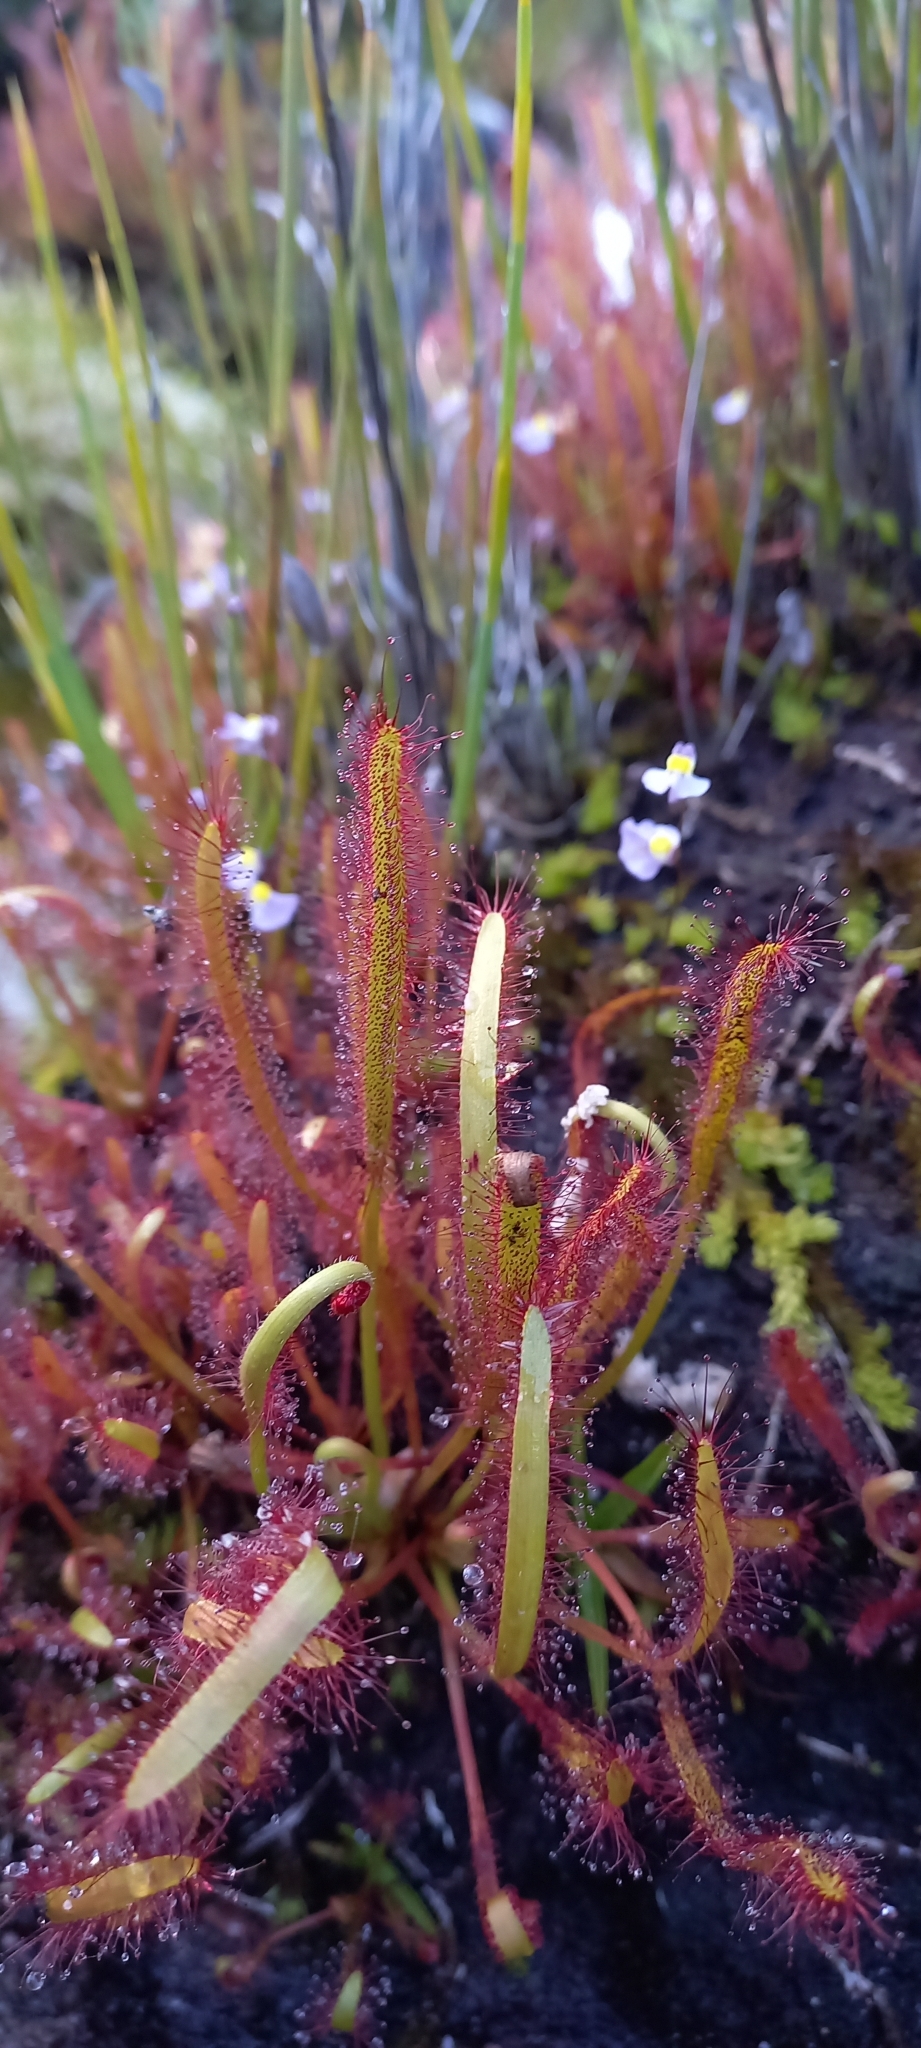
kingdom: Plantae
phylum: Tracheophyta
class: Magnoliopsida
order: Caryophyllales
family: Droseraceae
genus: Drosera
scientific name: Drosera capensis
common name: Cape sundew
